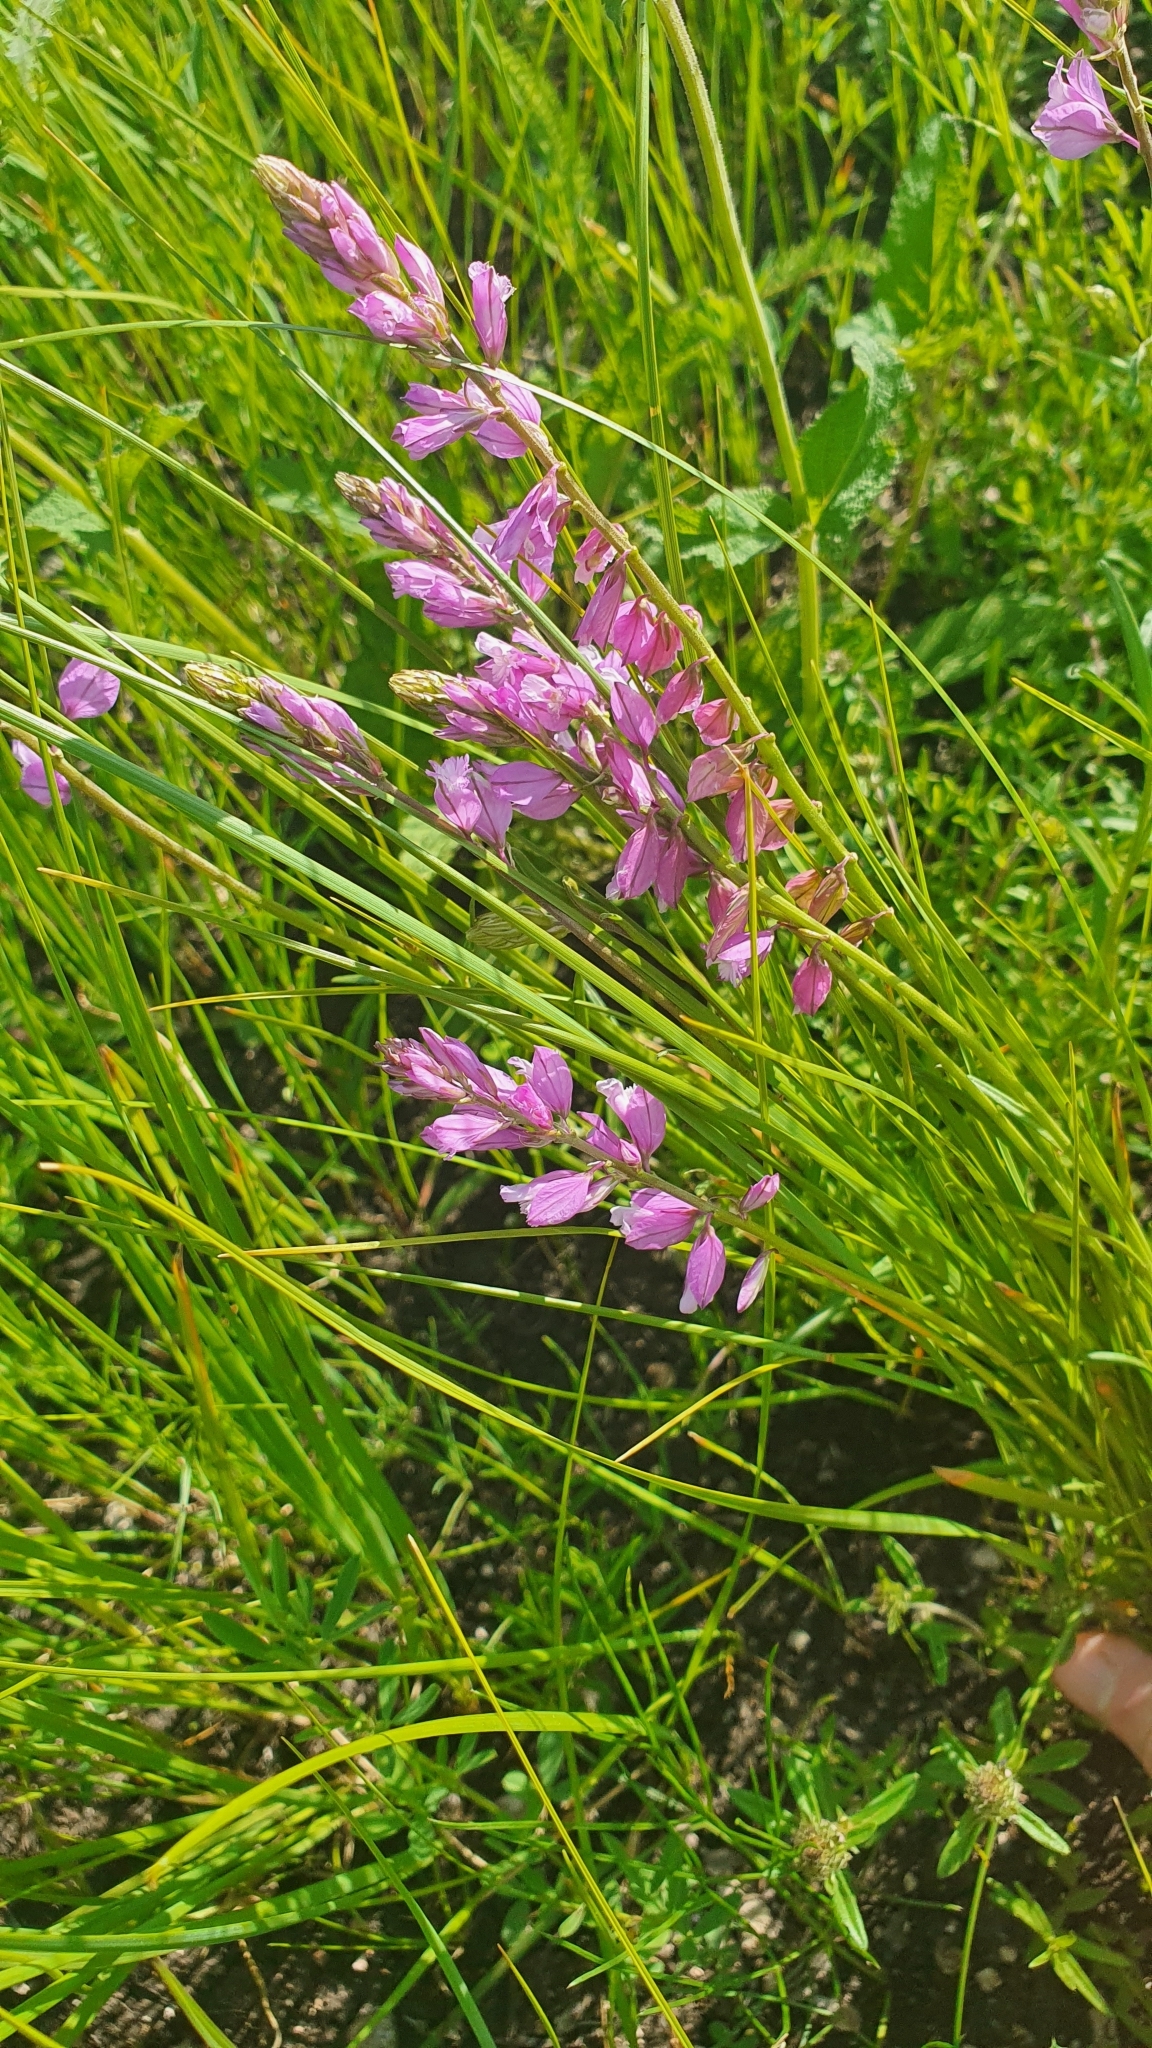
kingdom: Plantae
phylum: Tracheophyta
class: Magnoliopsida
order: Fabales
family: Polygalaceae
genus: Polygala
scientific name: Polygala comosa
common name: Tufted milkwort
